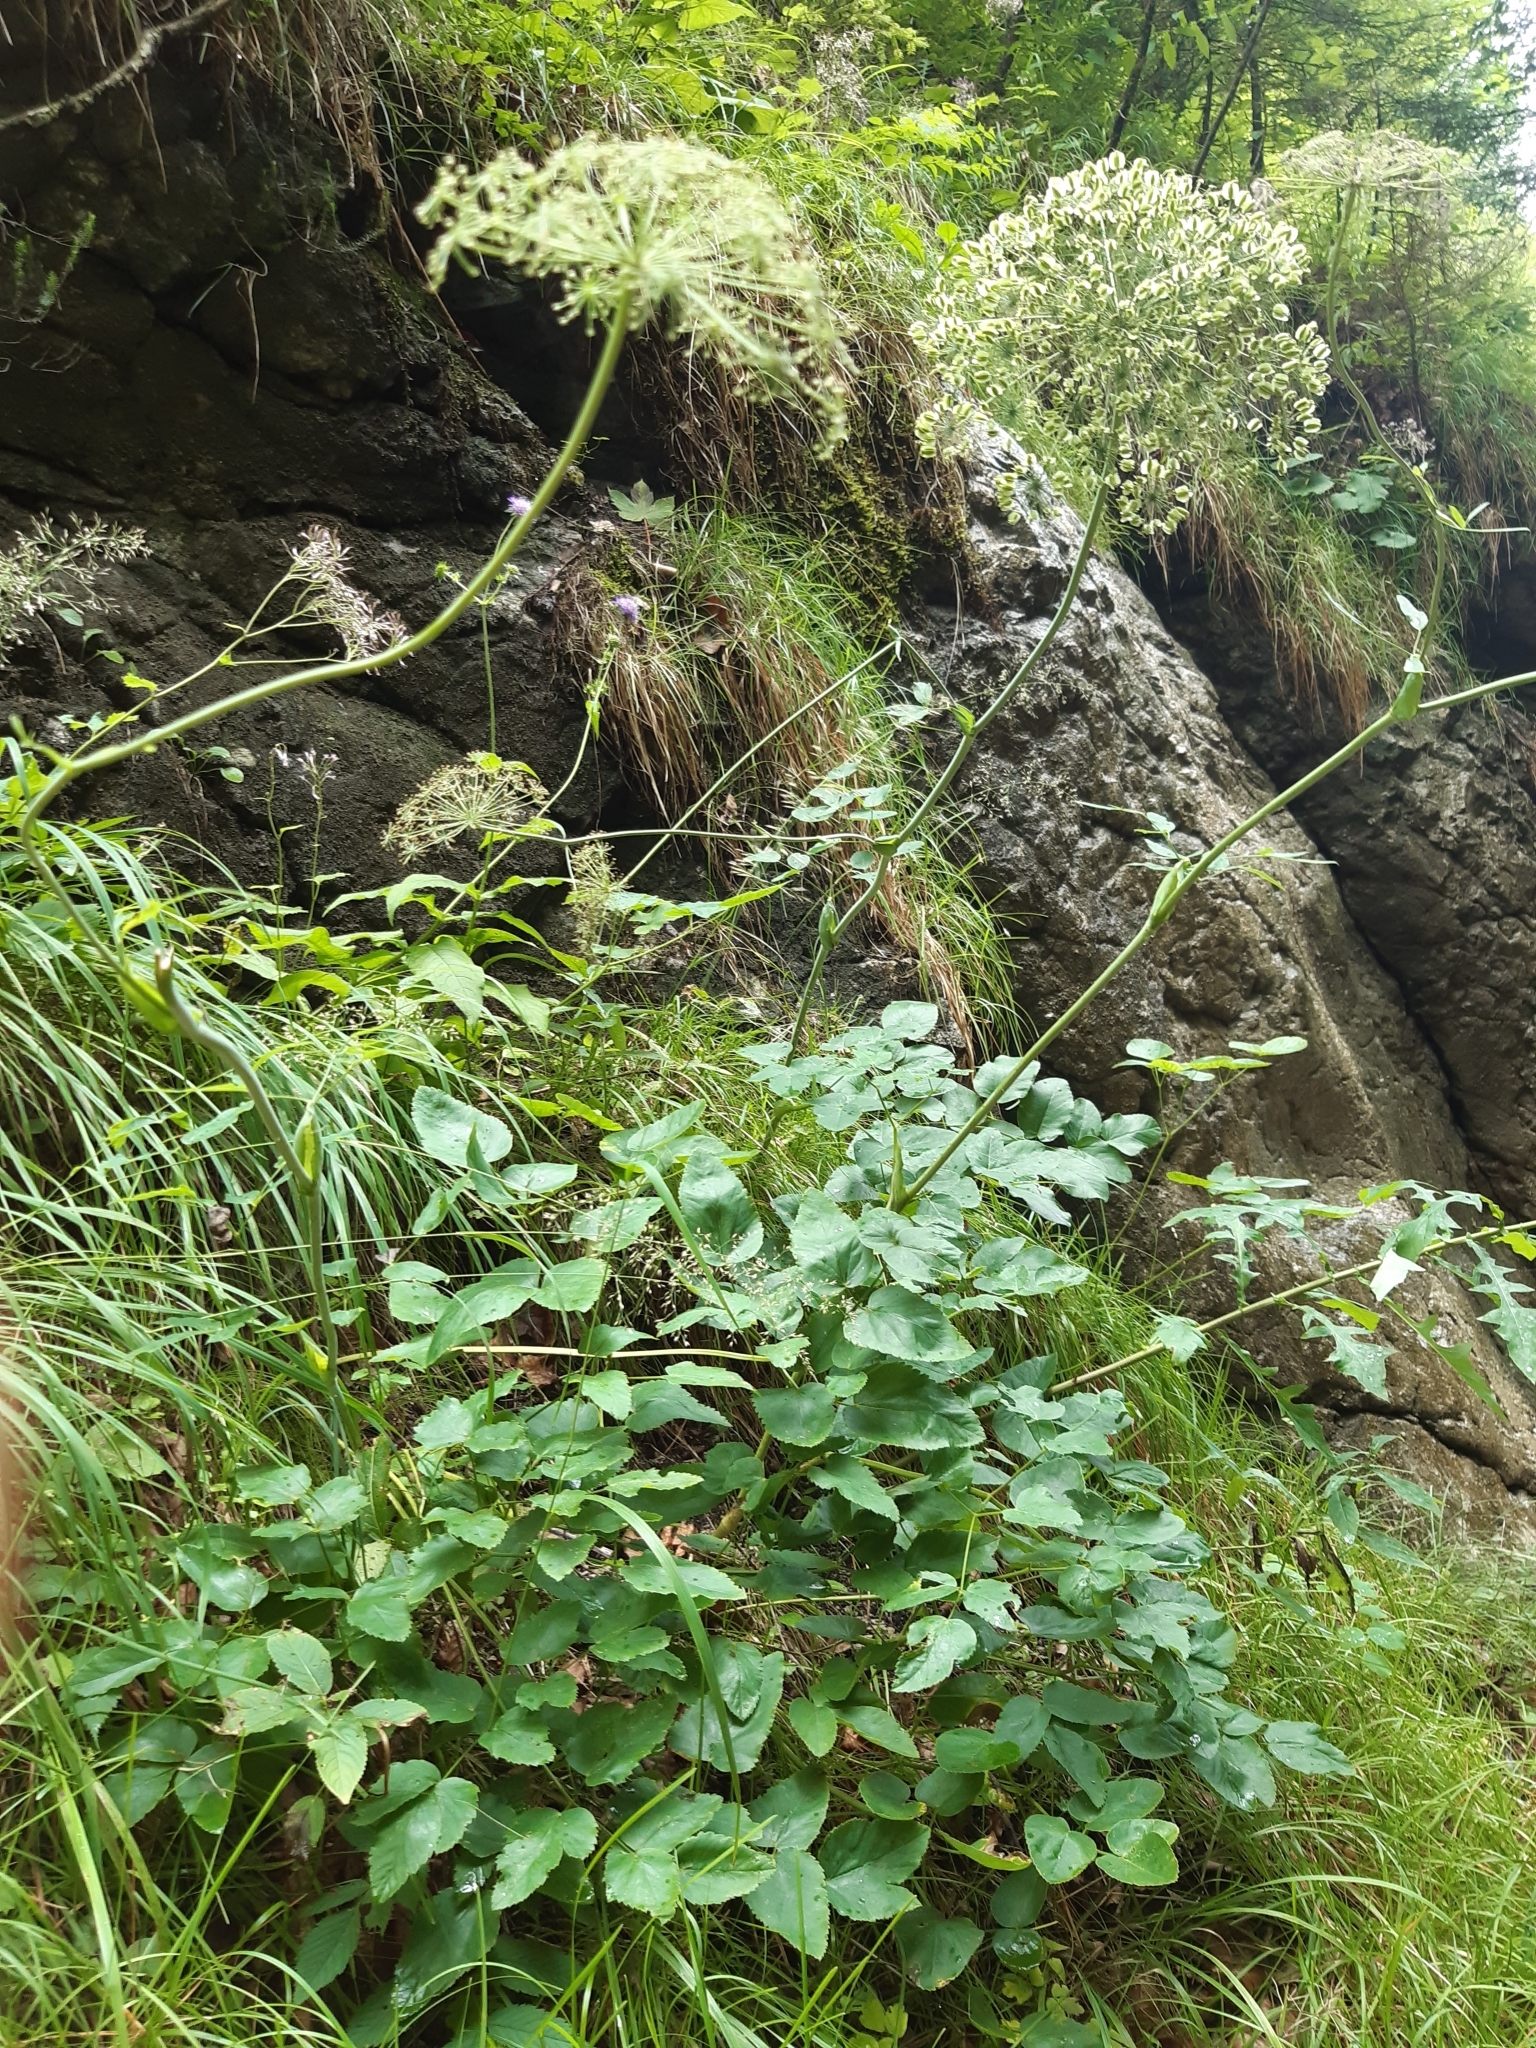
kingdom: Plantae
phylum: Tracheophyta
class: Magnoliopsida
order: Apiales
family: Apiaceae
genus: Laserpitium
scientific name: Laserpitium latifolium
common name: Broadleaf sermountain
